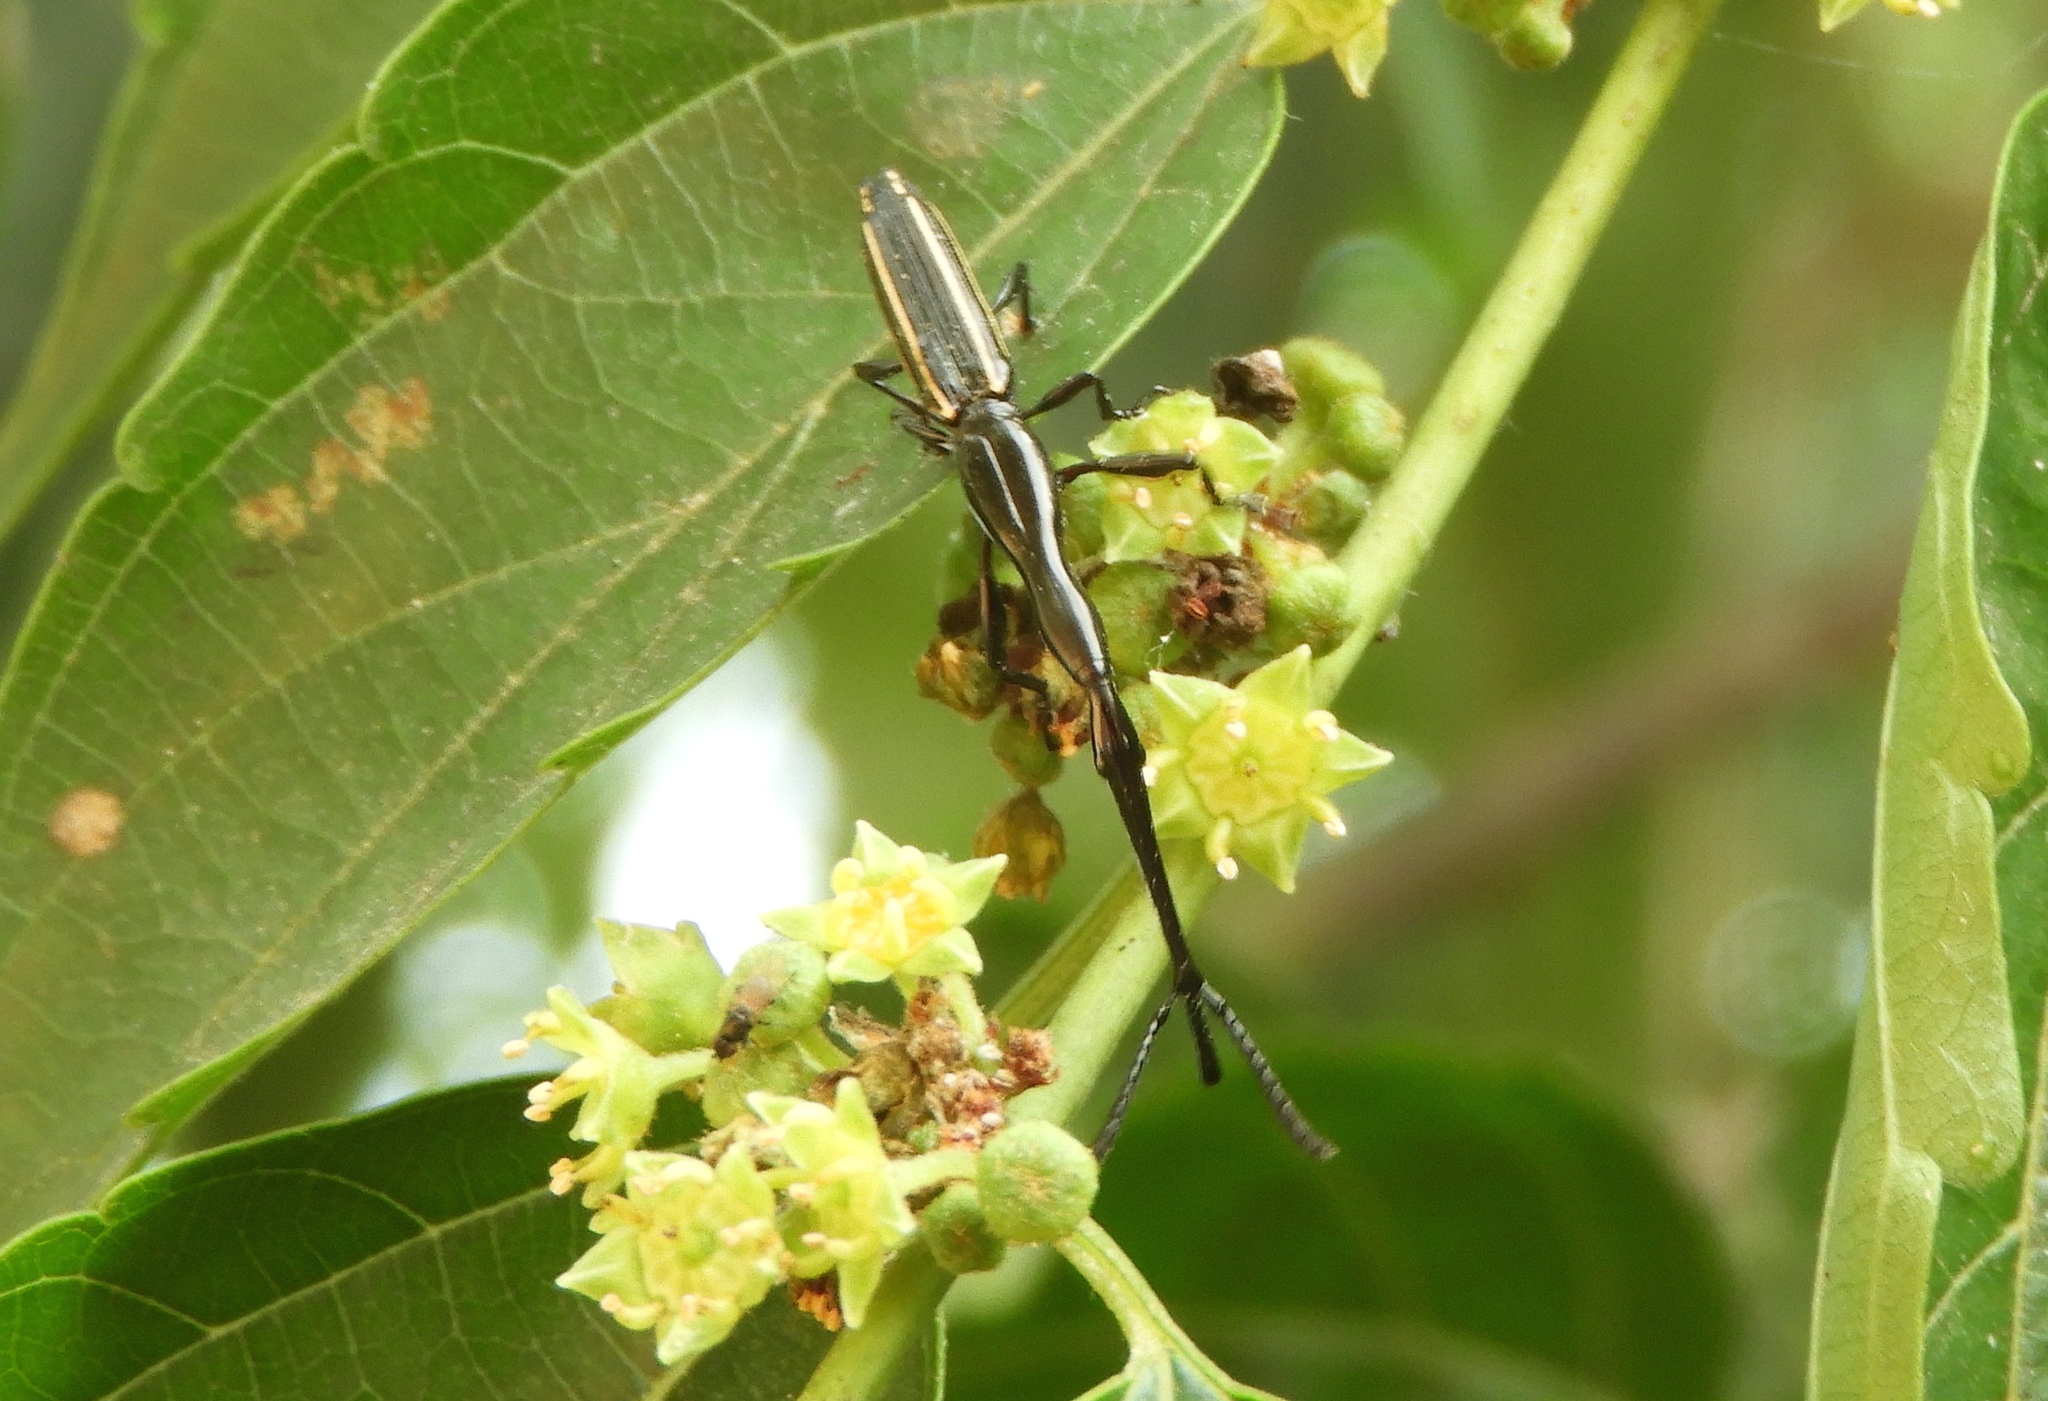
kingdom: Animalia
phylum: Arthropoda
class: Insecta
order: Coleoptera
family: Brentidae
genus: Brentus
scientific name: Brentus anchorago
